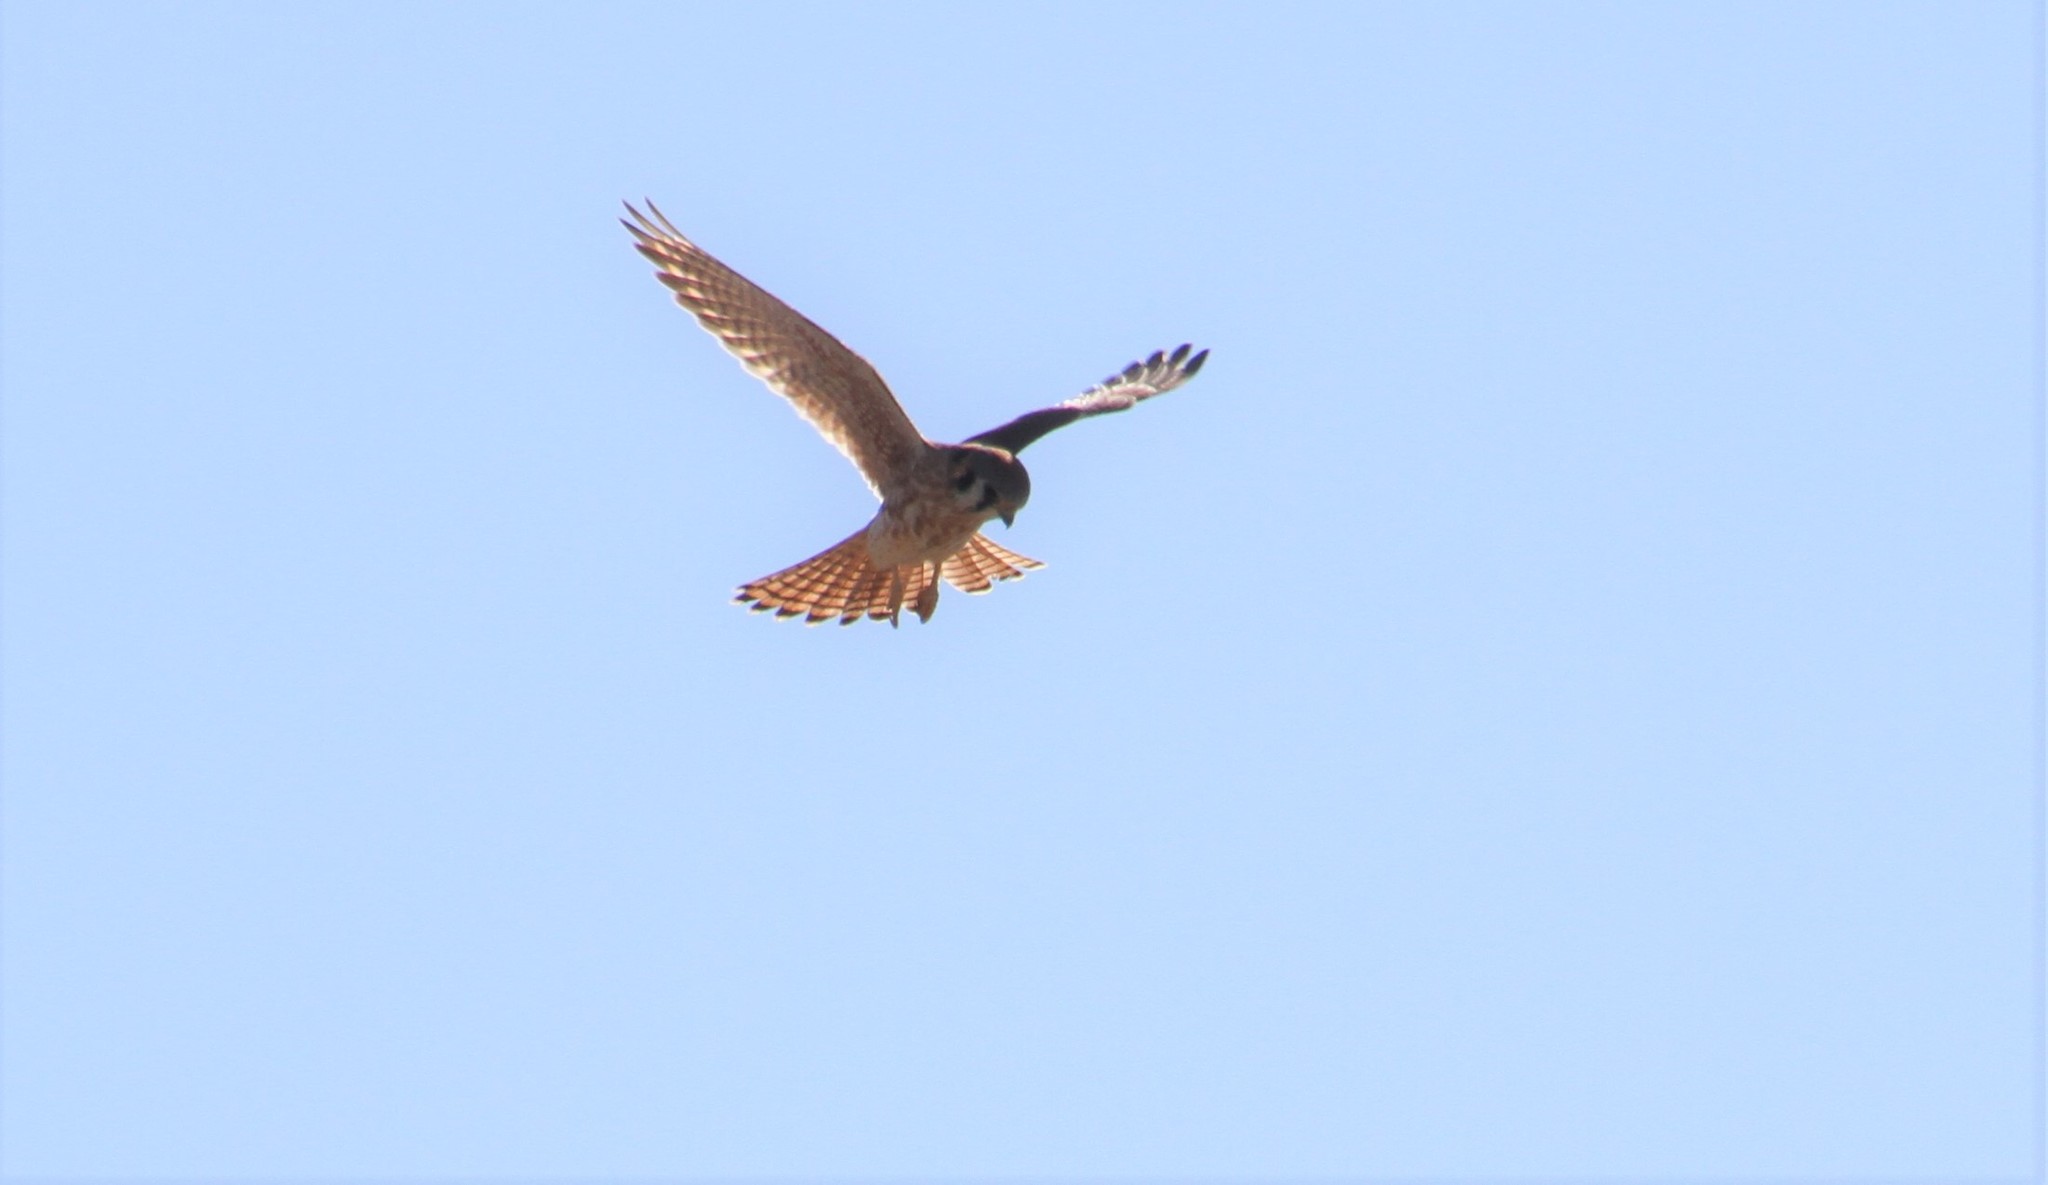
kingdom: Animalia
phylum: Chordata
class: Aves
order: Falconiformes
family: Falconidae
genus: Falco
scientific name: Falco sparverius
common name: American kestrel
